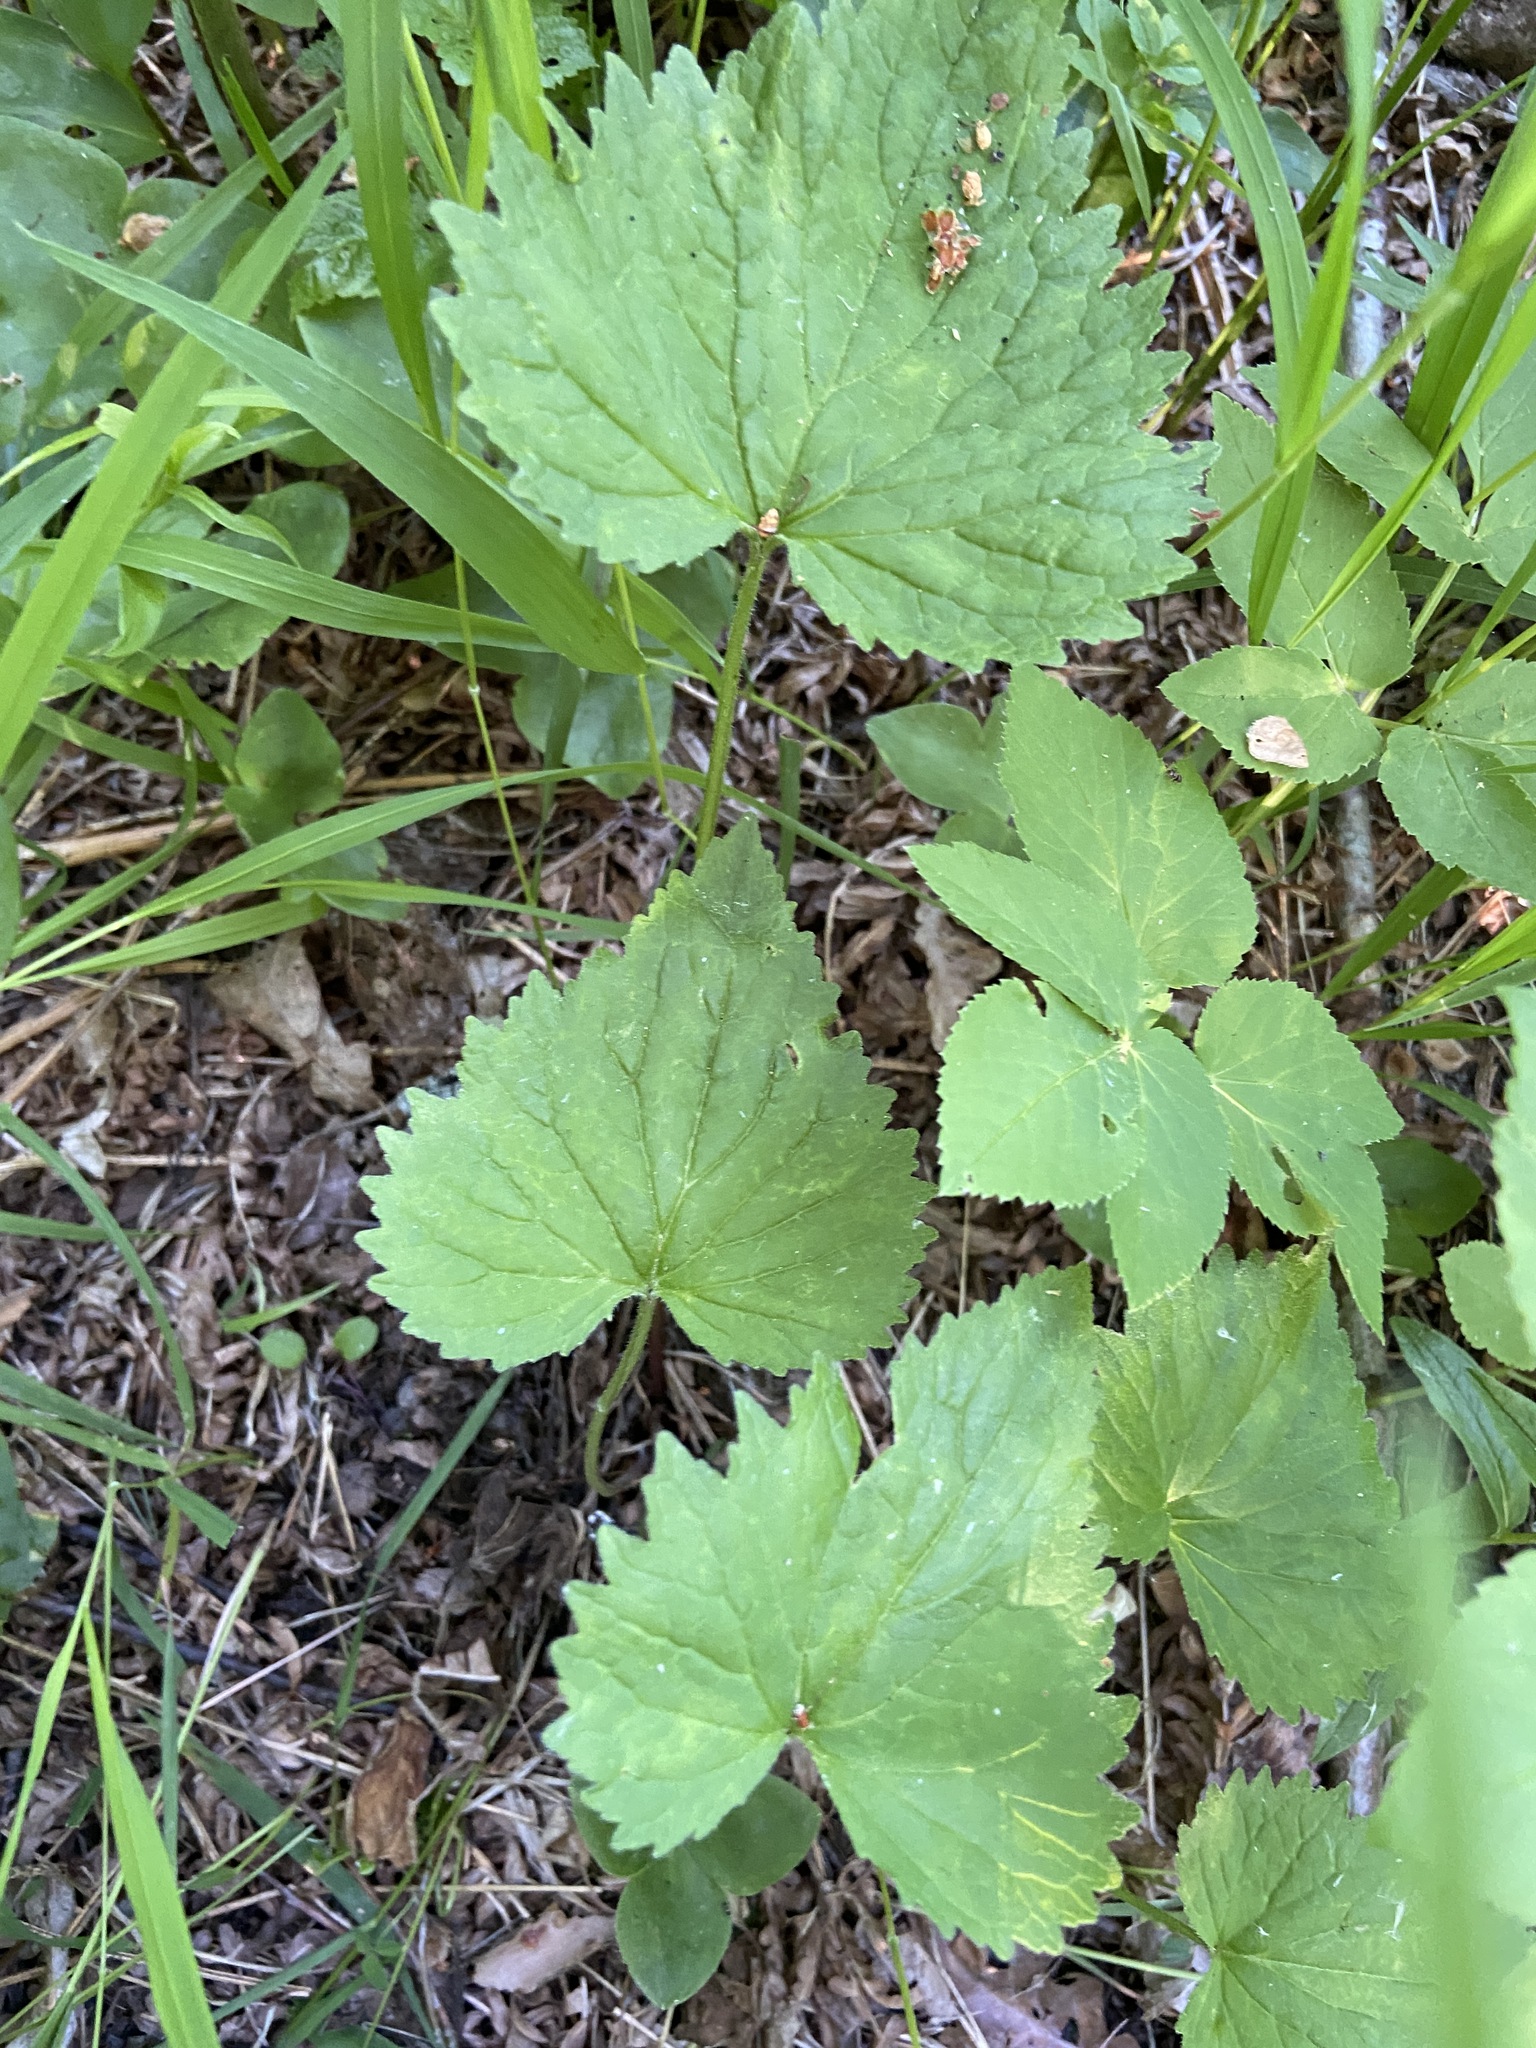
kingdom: Plantae
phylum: Tracheophyta
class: Magnoliopsida
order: Asterales
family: Campanulaceae
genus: Campanula
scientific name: Campanula trachelium
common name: Nettle-leaved bellflower
